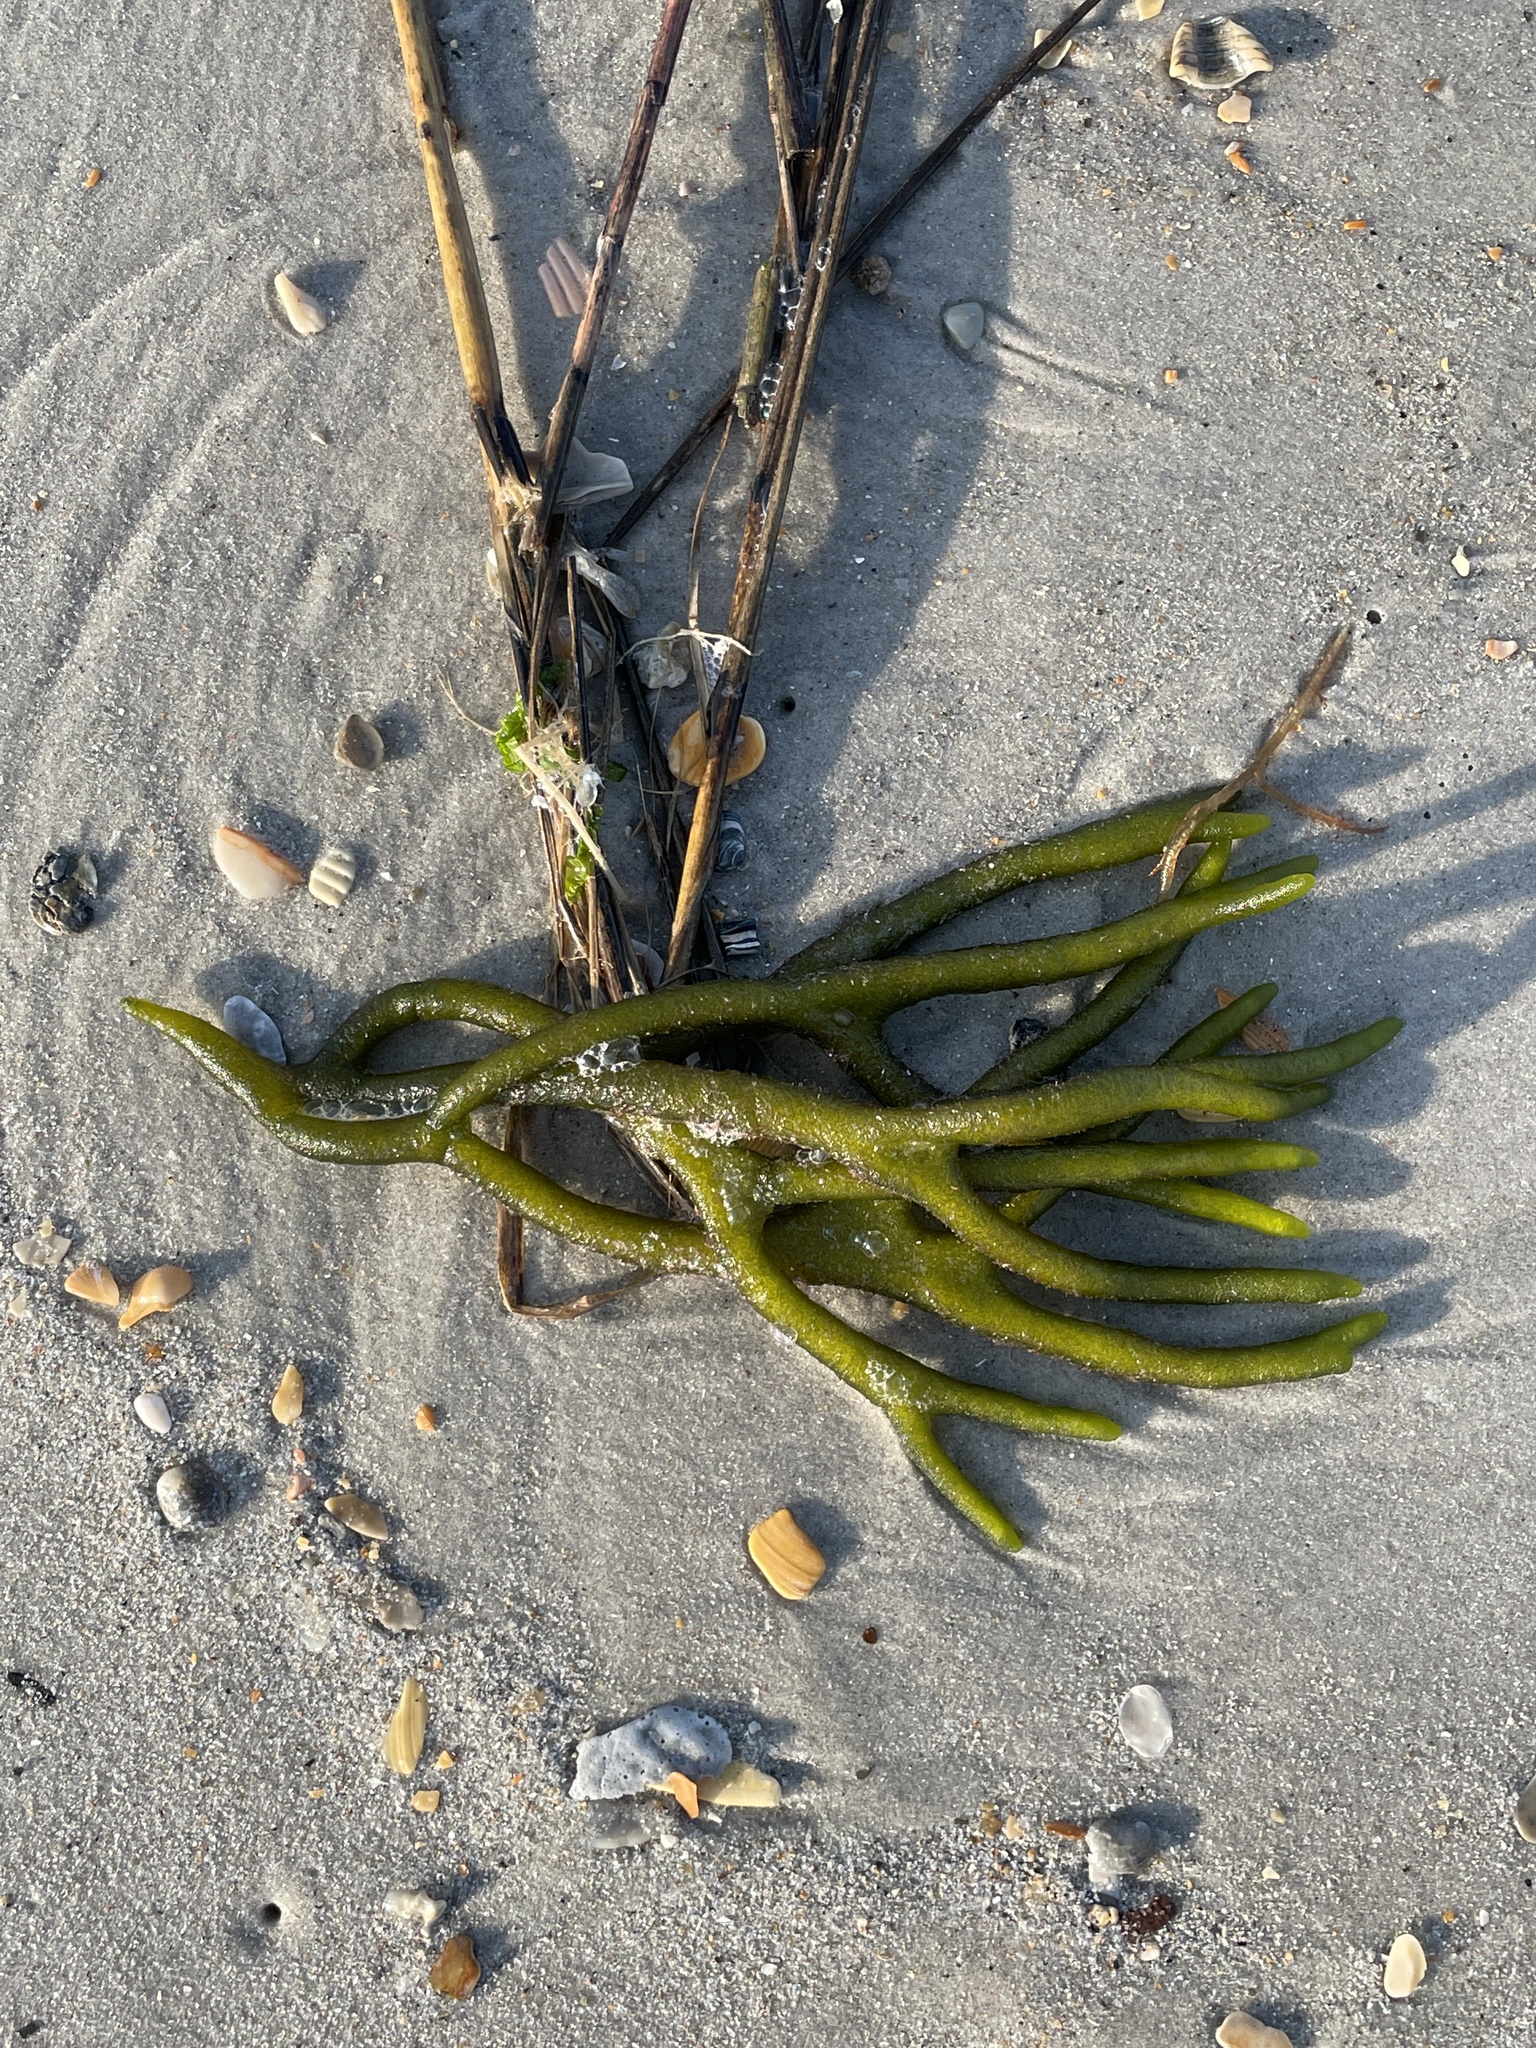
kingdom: Plantae
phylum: Chlorophyta
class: Ulvophyceae
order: Bryopsidales
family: Codiaceae
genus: Codium
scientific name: Codium fragile
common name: Dead man's fingers
